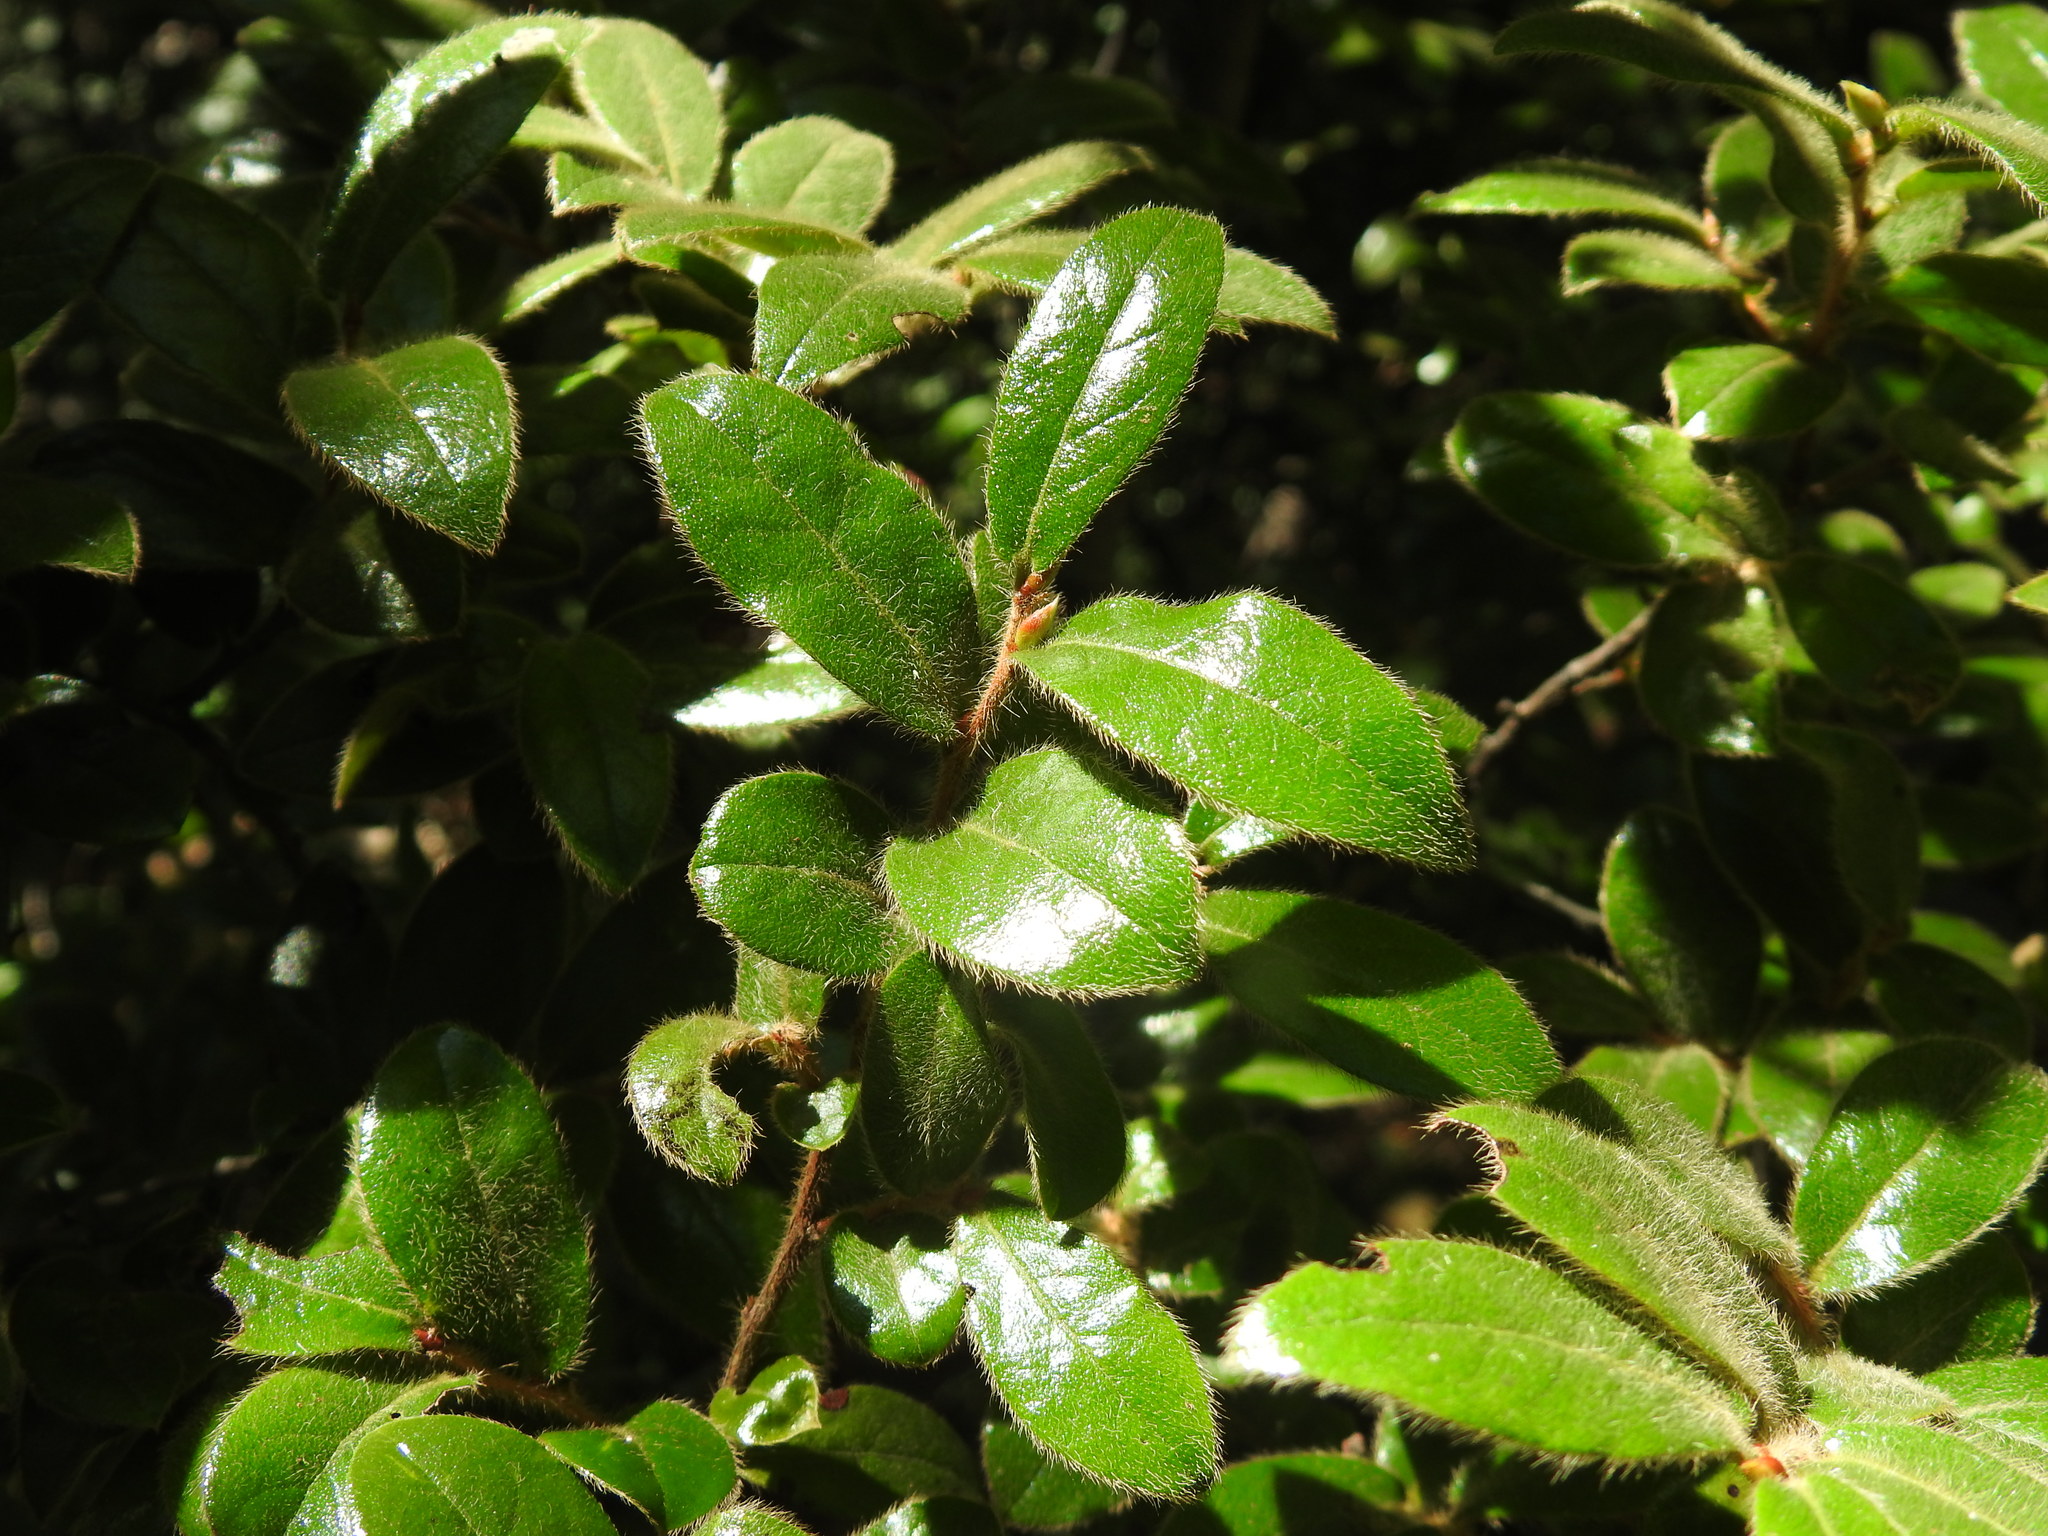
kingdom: Plantae
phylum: Tracheophyta
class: Magnoliopsida
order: Ericales
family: Ebenaceae
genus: Diospyros
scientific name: Diospyros whyteana
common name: Bladder-nut
